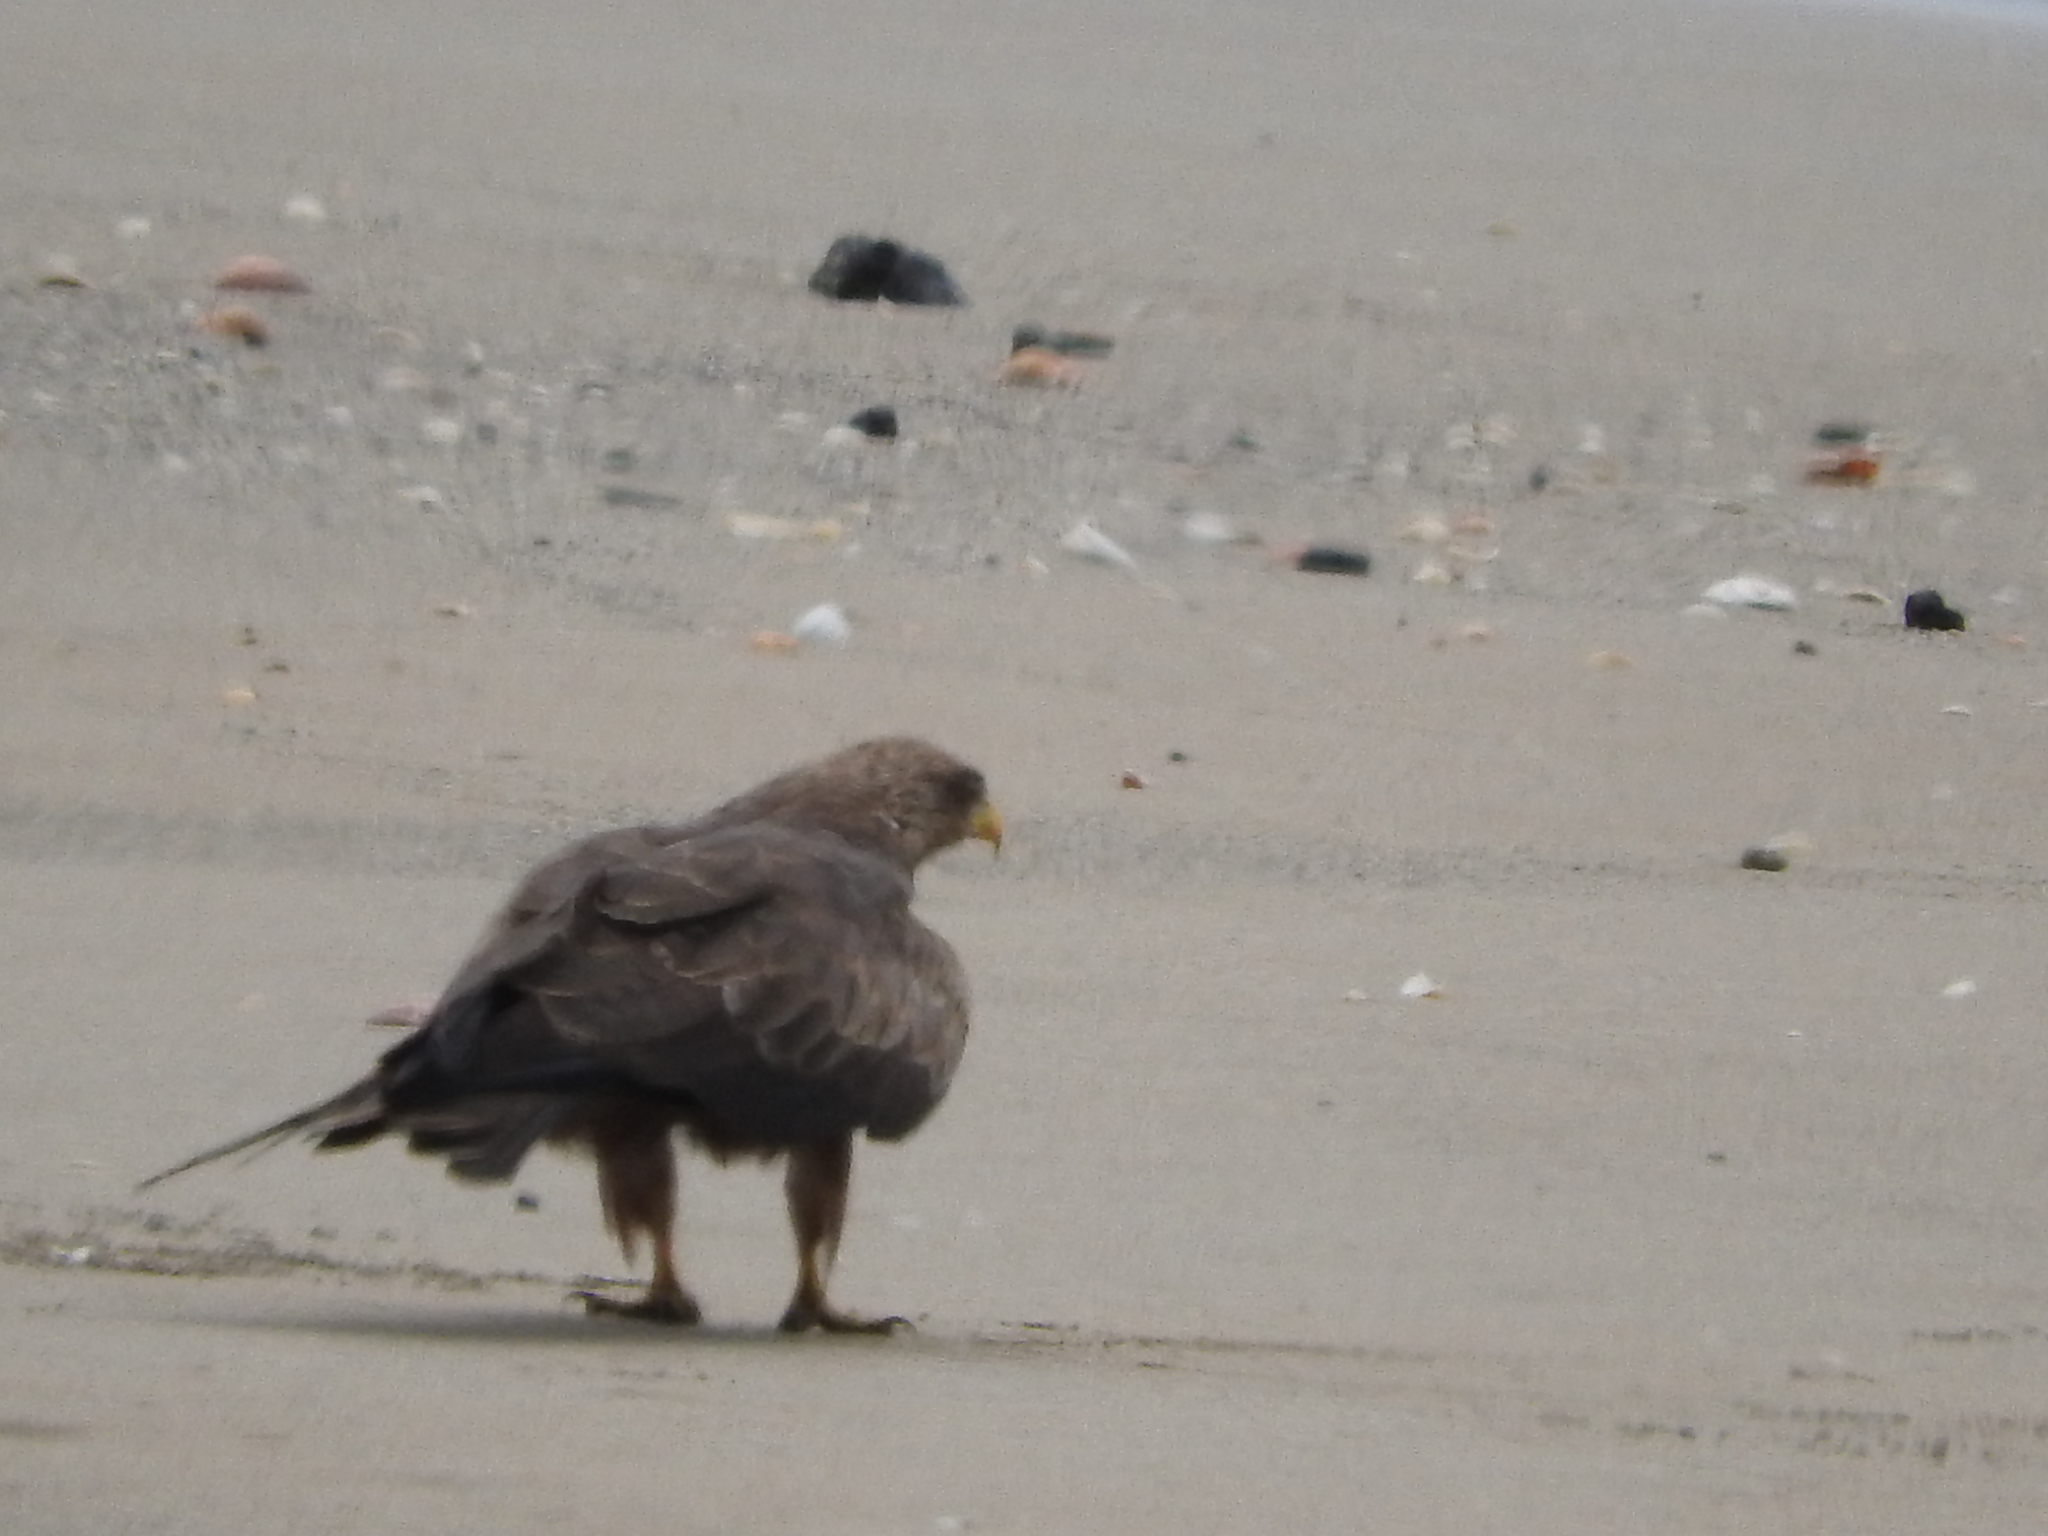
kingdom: Animalia
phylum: Chordata
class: Aves
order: Accipitriformes
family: Accipitridae
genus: Milvus
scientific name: Milvus migrans
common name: Black kite
